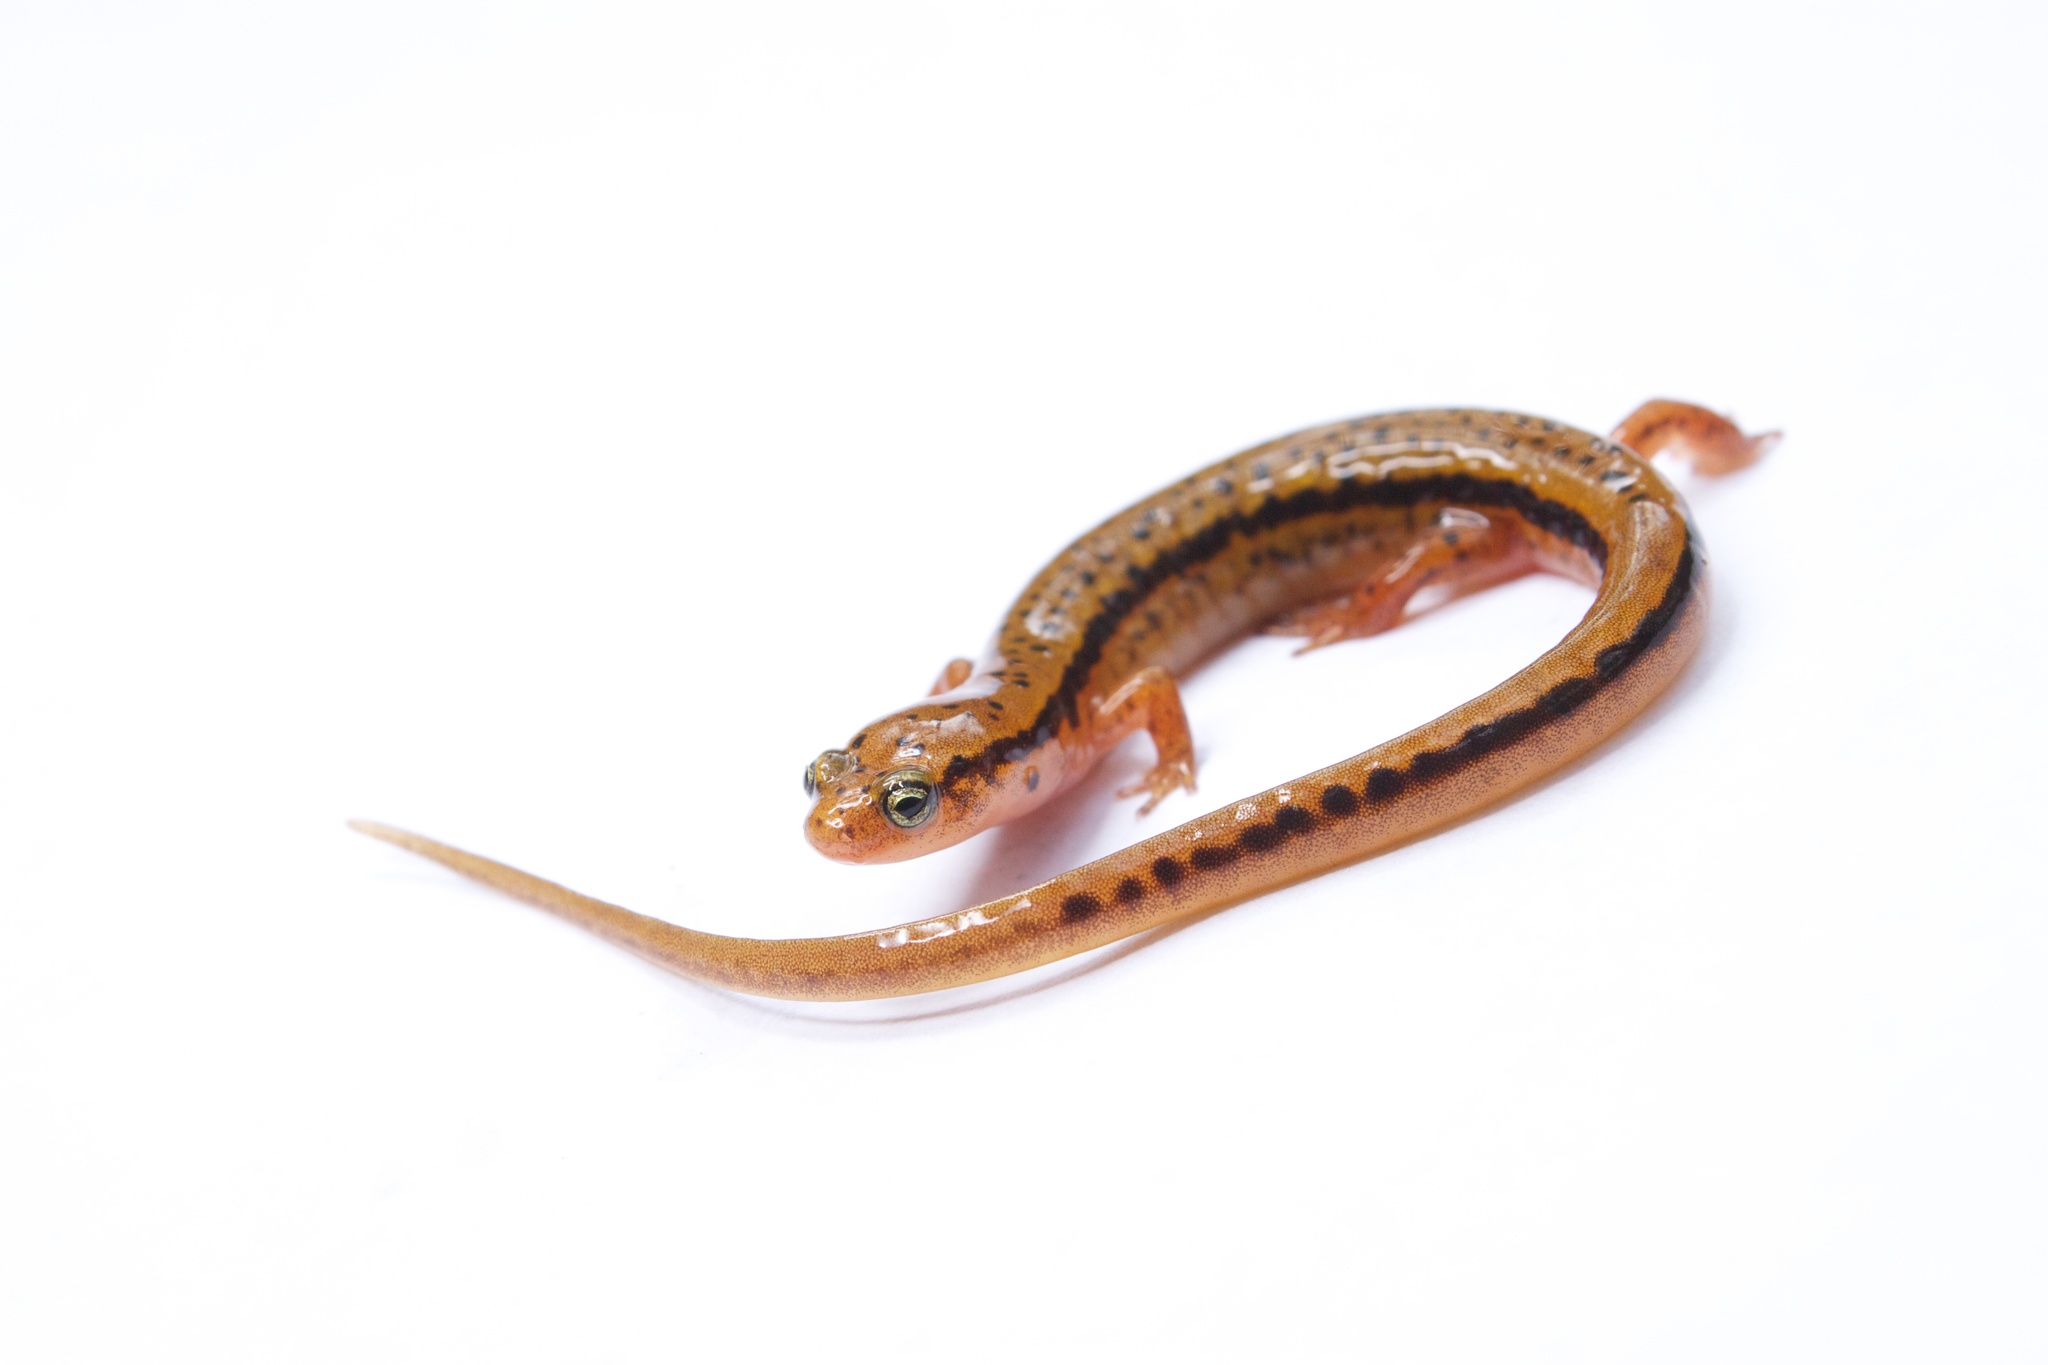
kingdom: Animalia
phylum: Chordata
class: Amphibia
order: Caudata
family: Plethodontidae
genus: Eurycea
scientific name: Eurycea wilderae
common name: Blue ridge two-lined salamander
